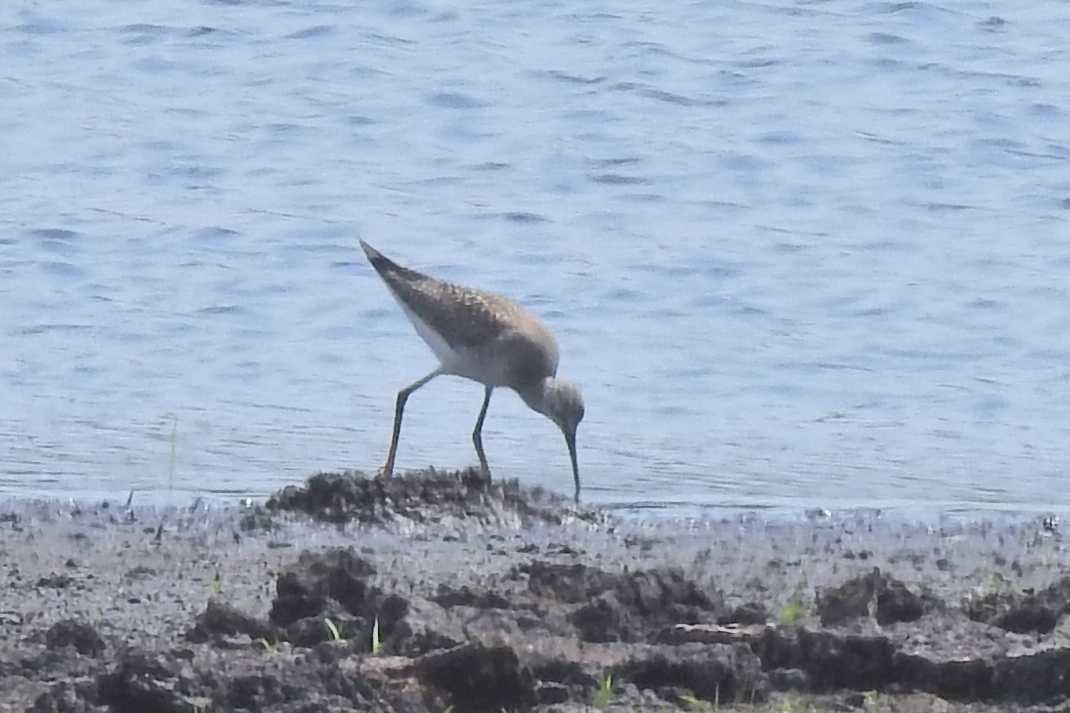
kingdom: Animalia
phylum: Chordata
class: Aves
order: Charadriiformes
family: Scolopacidae
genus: Tringa
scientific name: Tringa flavipes
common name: Lesser yellowlegs
